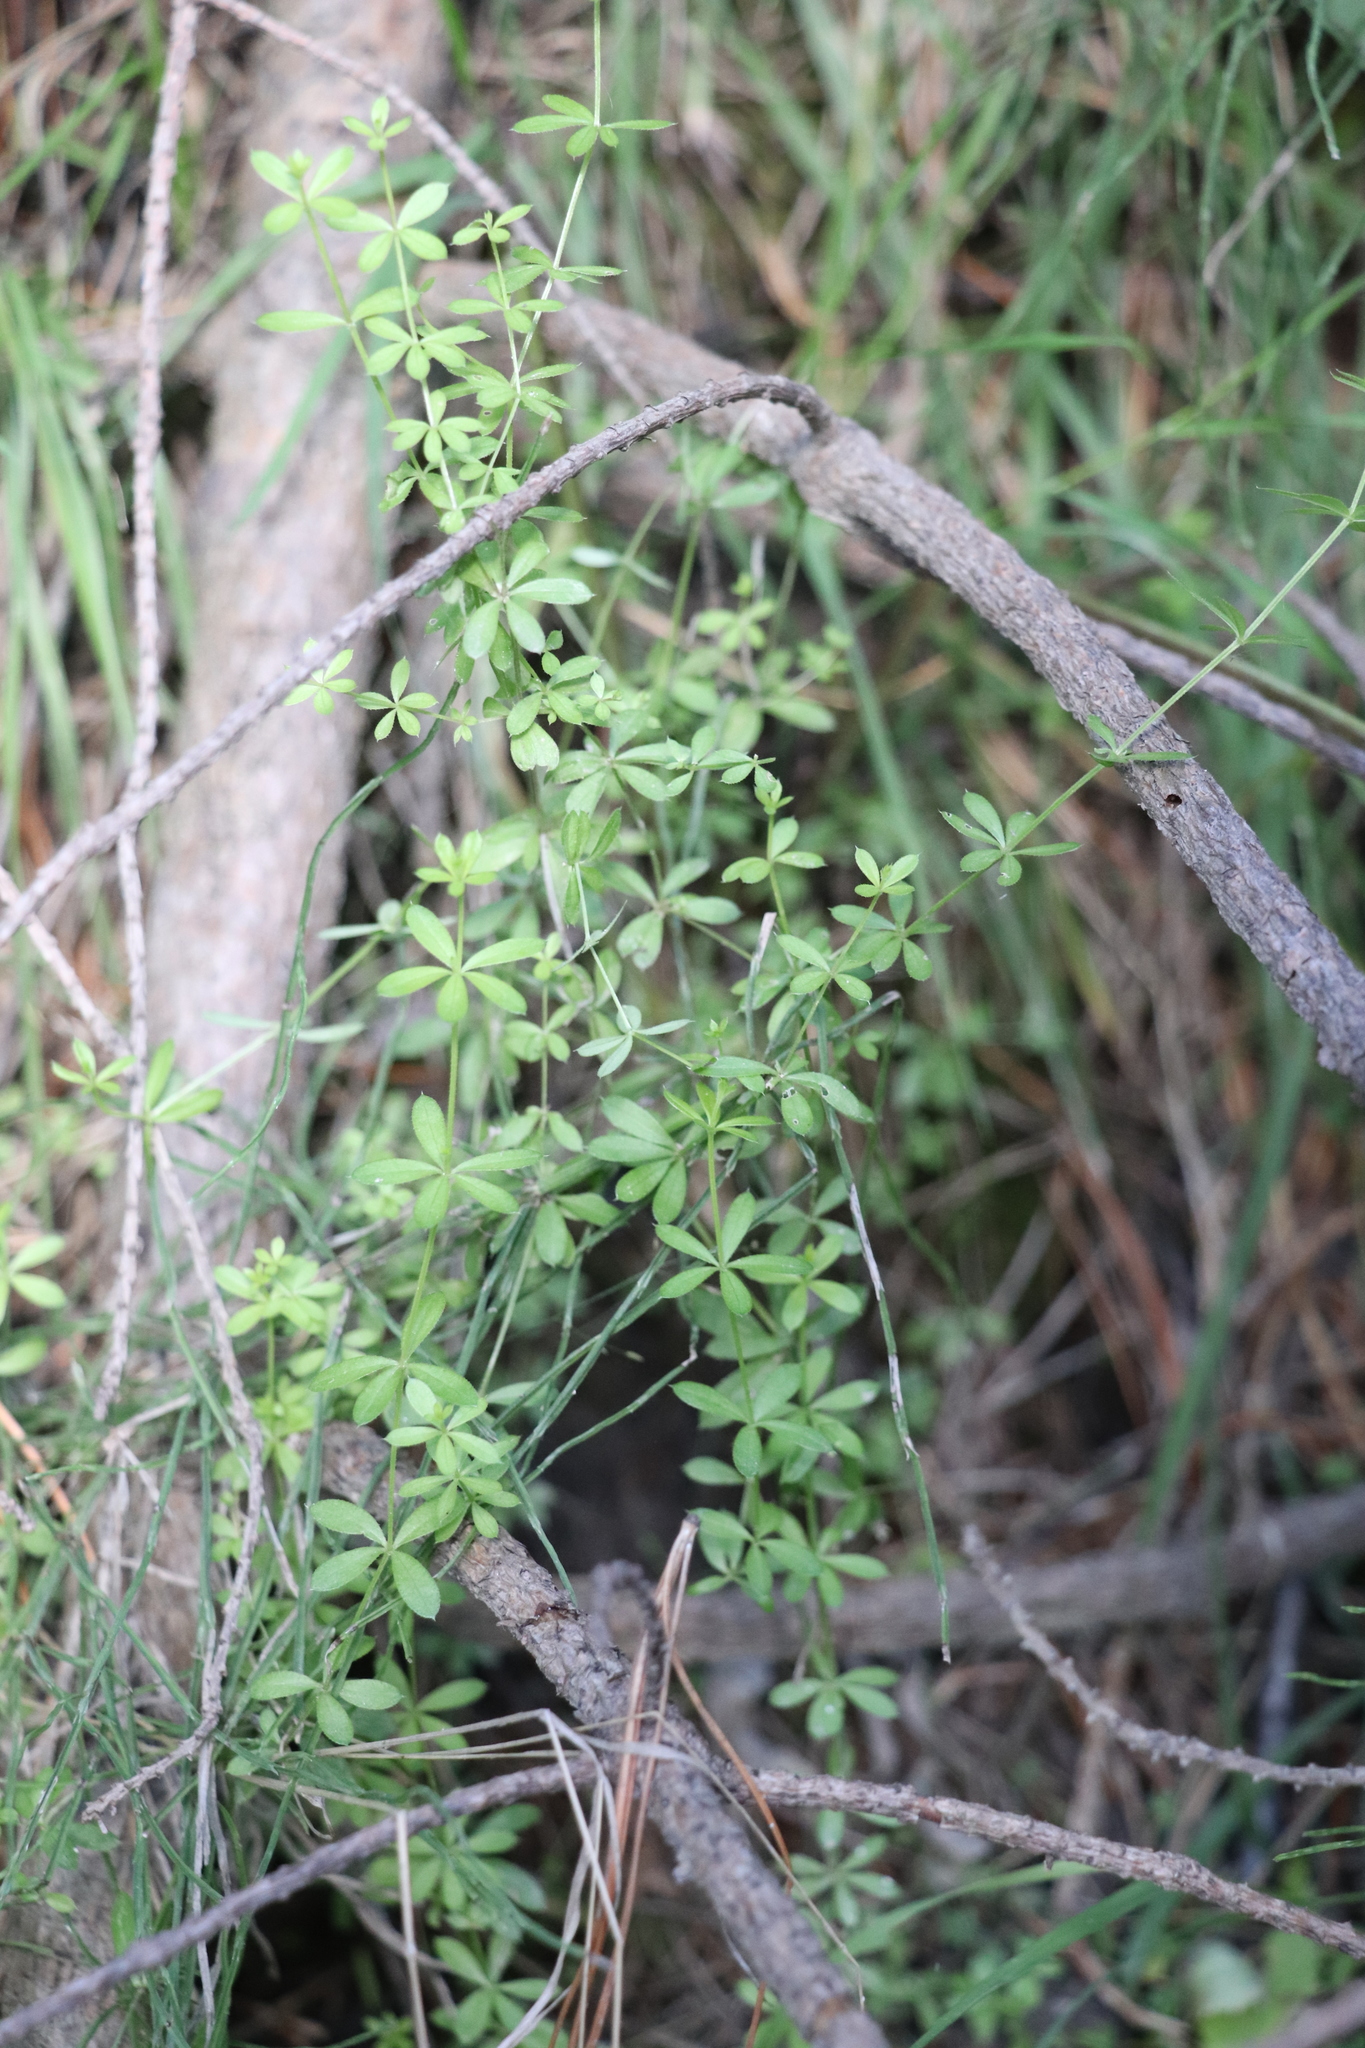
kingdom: Plantae
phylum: Tracheophyta
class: Magnoliopsida
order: Gentianales
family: Rubiaceae
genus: Galium
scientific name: Galium uliginosum
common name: Fen bedstraw
